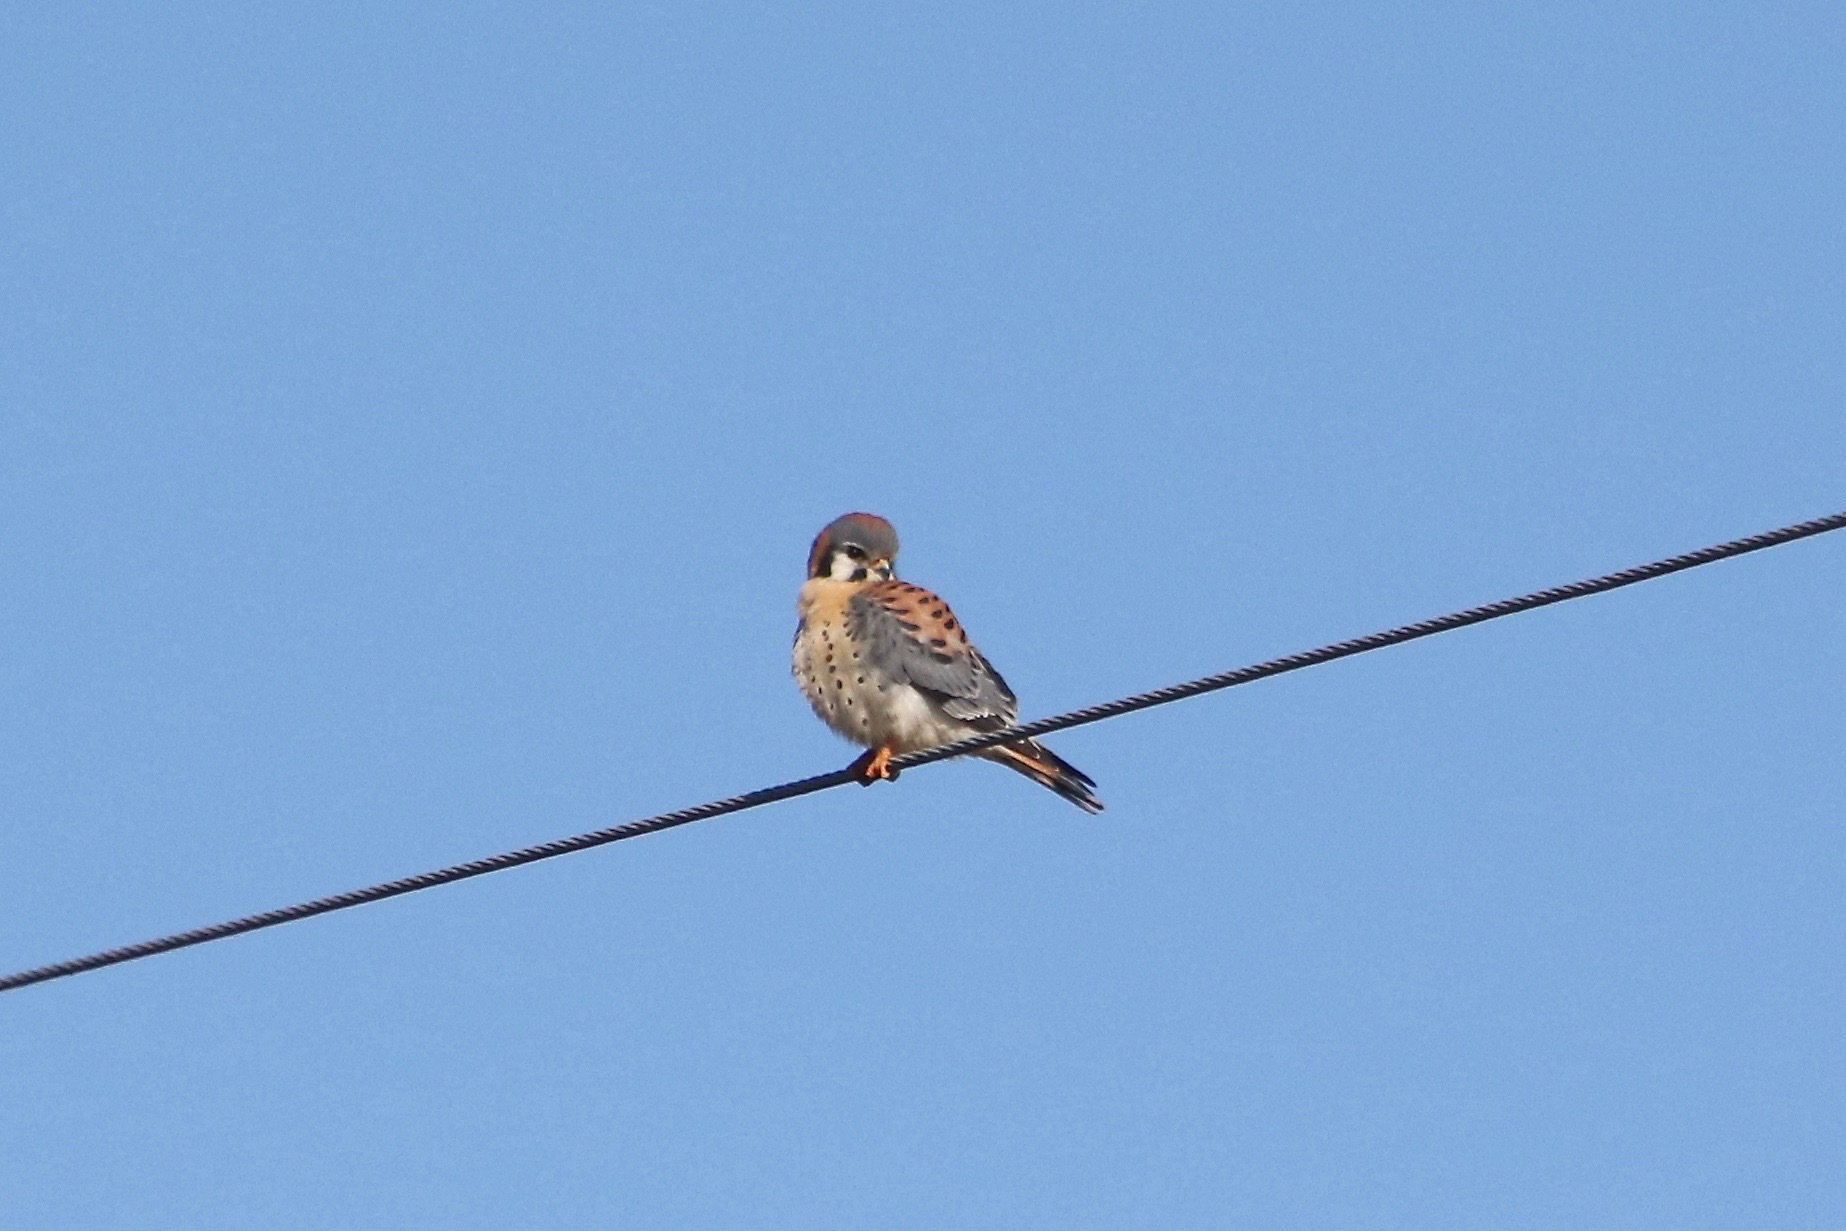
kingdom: Animalia
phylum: Chordata
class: Aves
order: Falconiformes
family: Falconidae
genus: Falco
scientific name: Falco sparverius
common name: American kestrel
